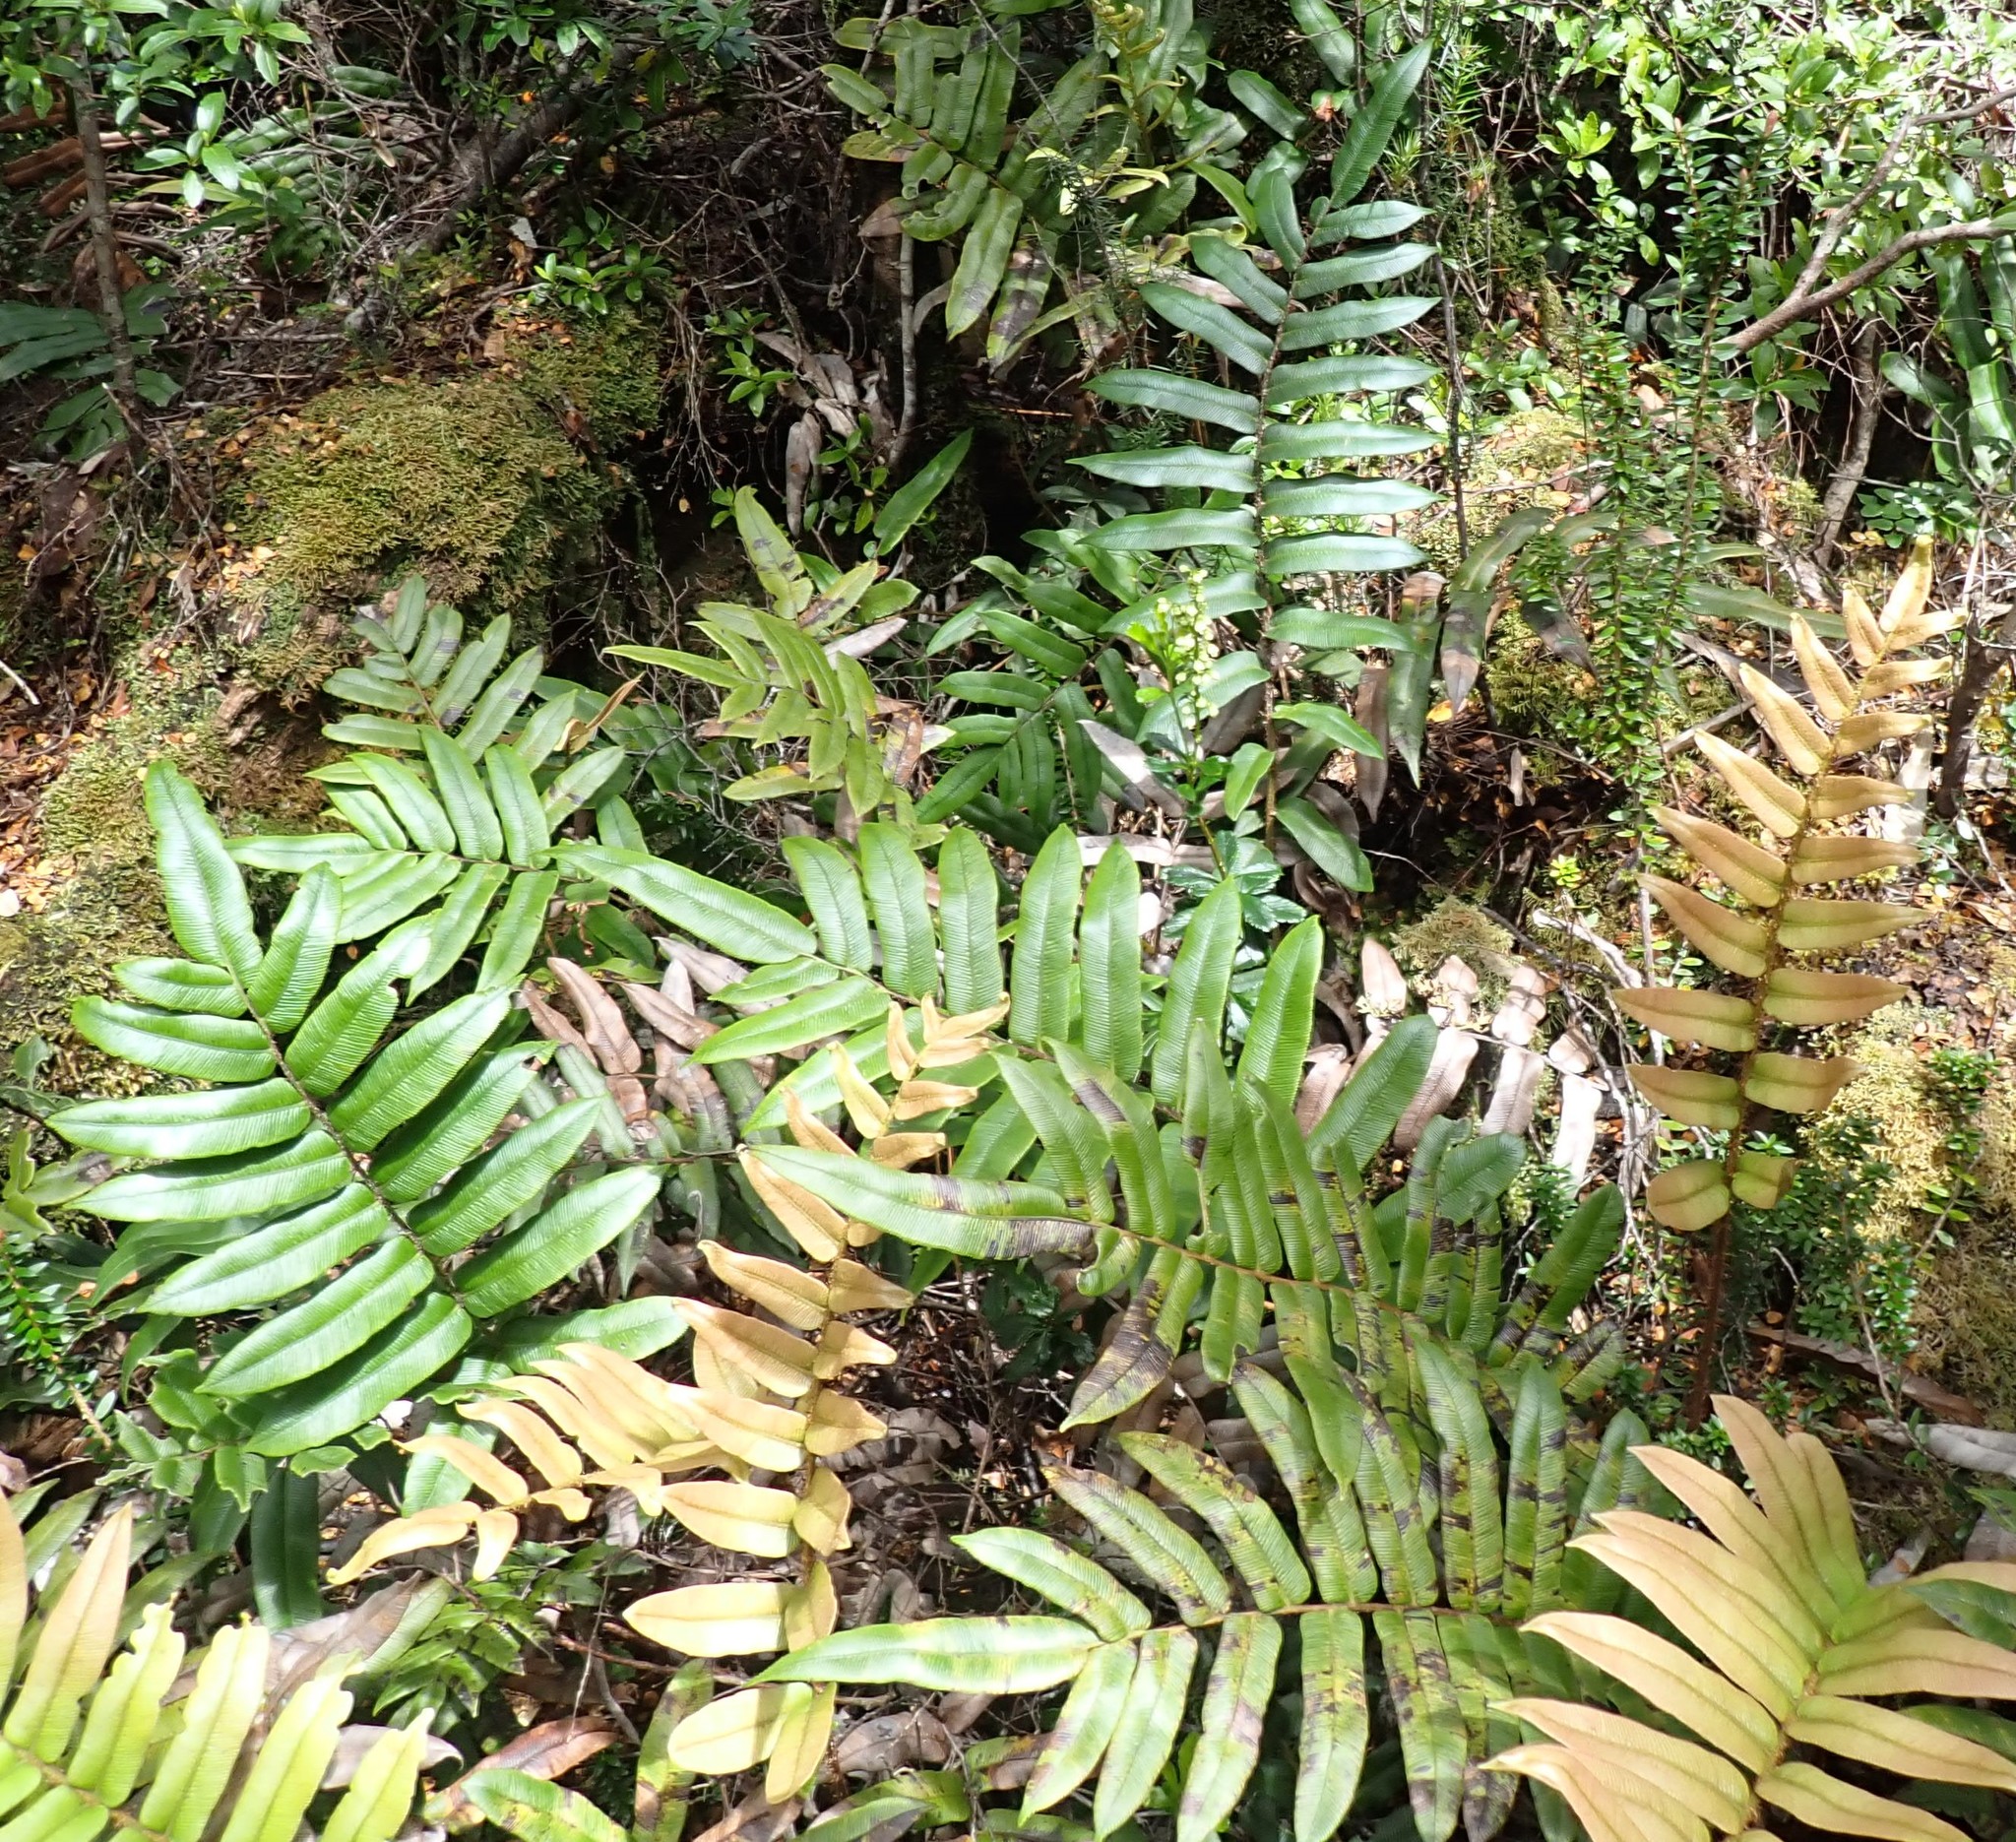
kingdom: Plantae
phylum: Tracheophyta
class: Polypodiopsida
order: Polypodiales
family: Blechnaceae
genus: Parablechnum
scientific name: Parablechnum wattsii
